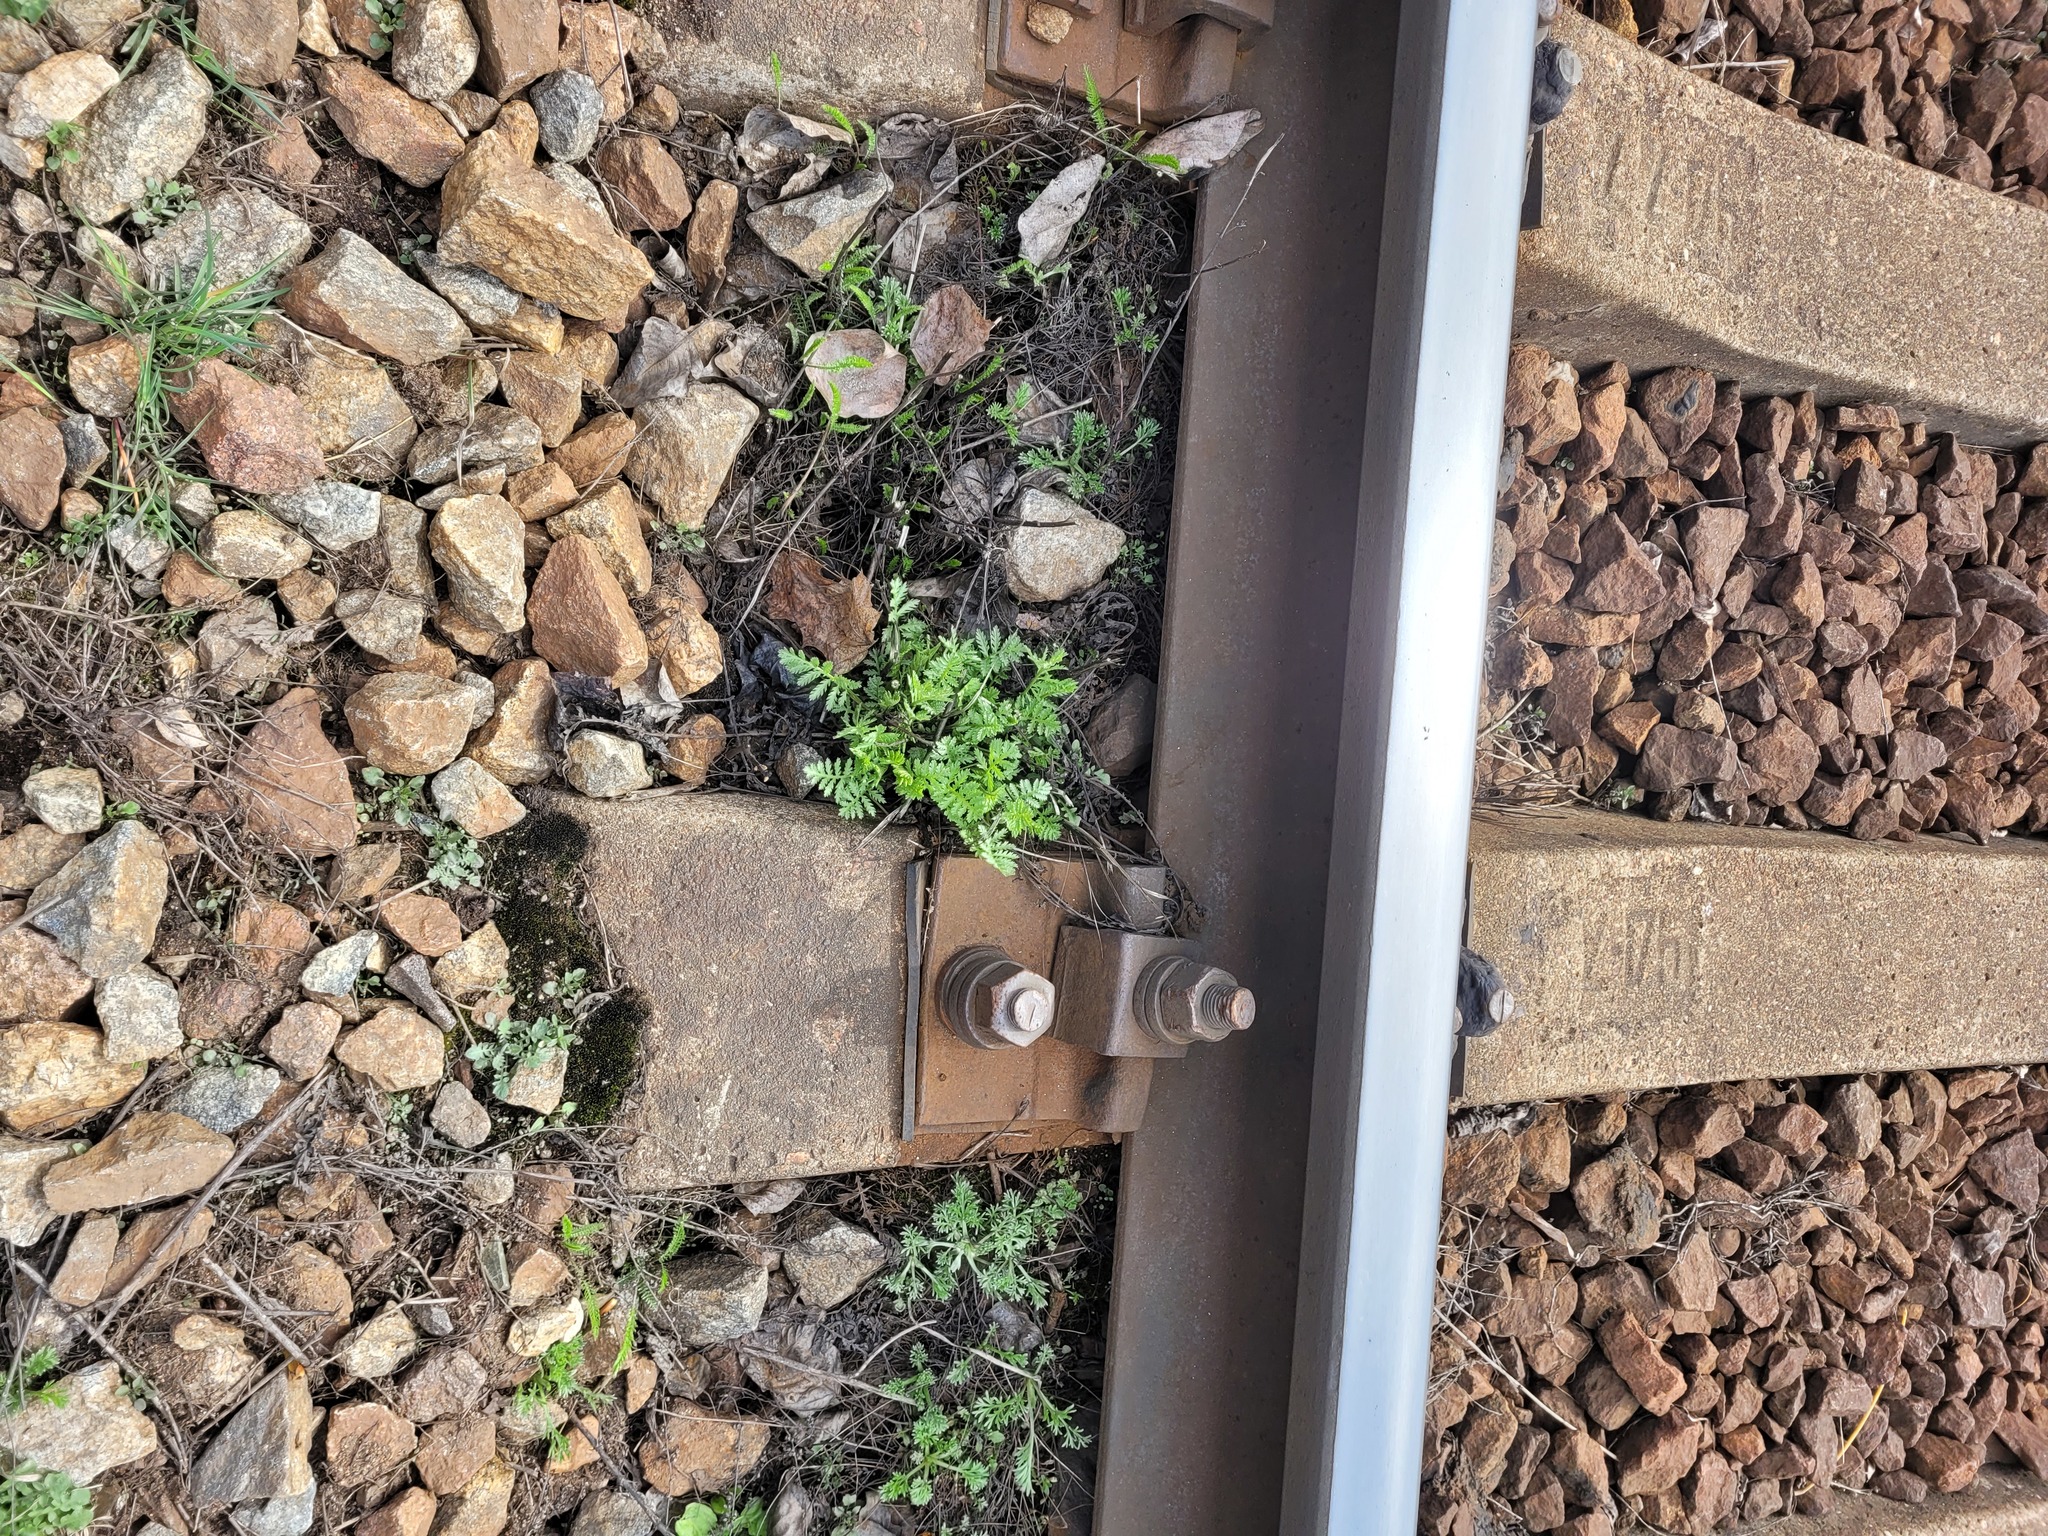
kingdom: Plantae
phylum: Tracheophyta
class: Magnoliopsida
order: Asterales
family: Asteraceae
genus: Tanacetum
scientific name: Tanacetum vulgare
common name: Common tansy
